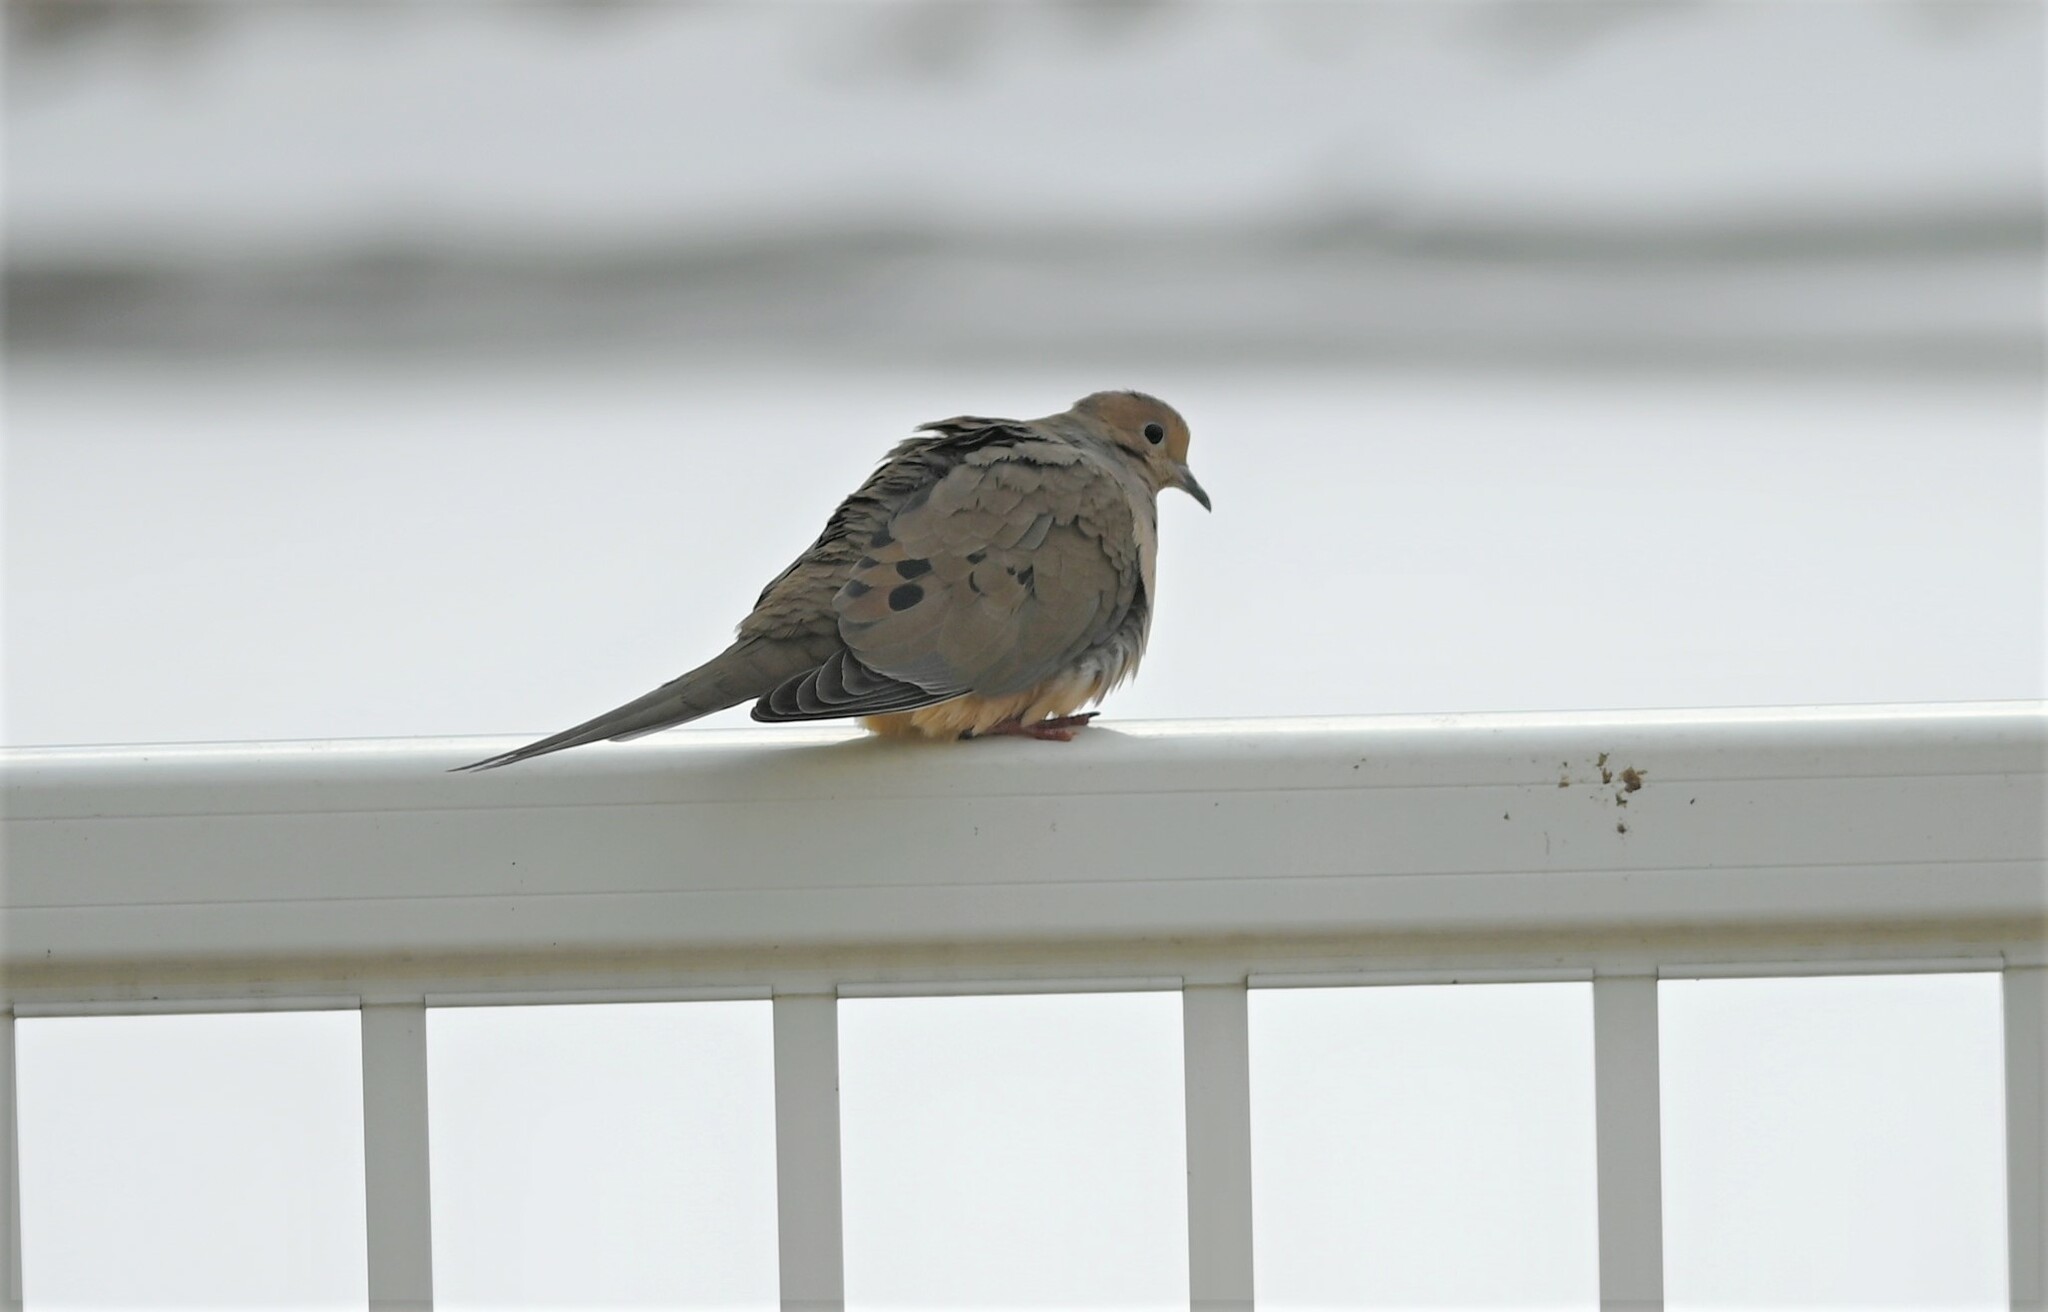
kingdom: Animalia
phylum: Chordata
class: Aves
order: Columbiformes
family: Columbidae
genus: Zenaida
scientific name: Zenaida macroura
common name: Mourning dove
